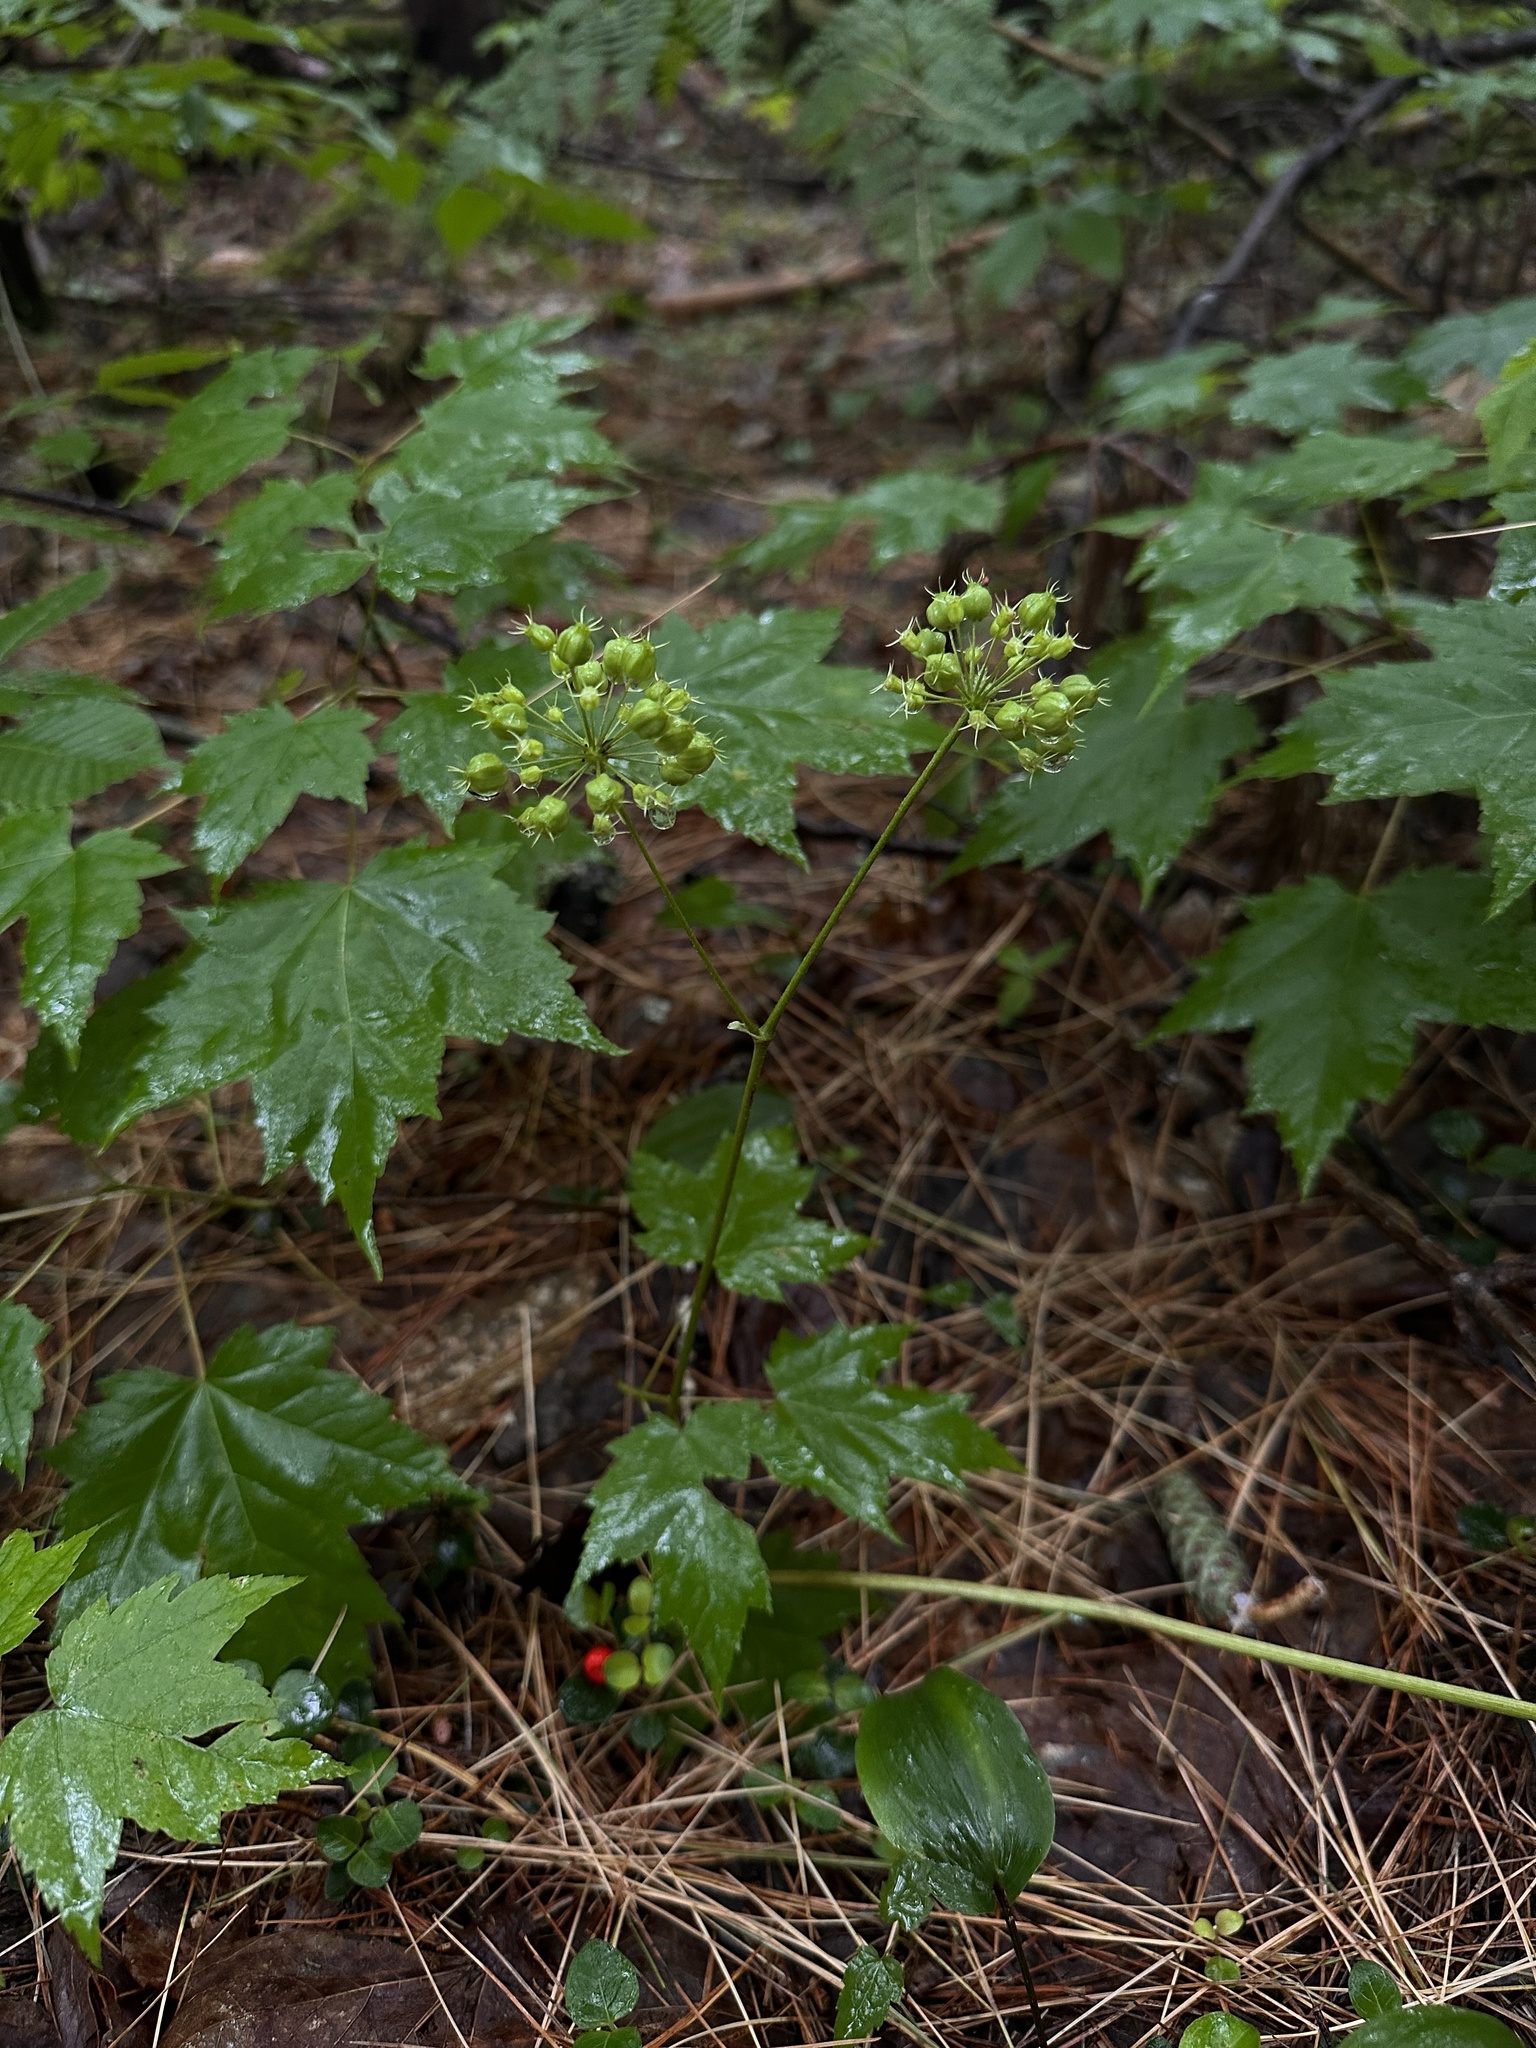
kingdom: Plantae
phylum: Tracheophyta
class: Magnoliopsida
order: Apiales
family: Araliaceae
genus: Aralia
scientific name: Aralia nudicaulis
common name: Wild sarsaparilla
